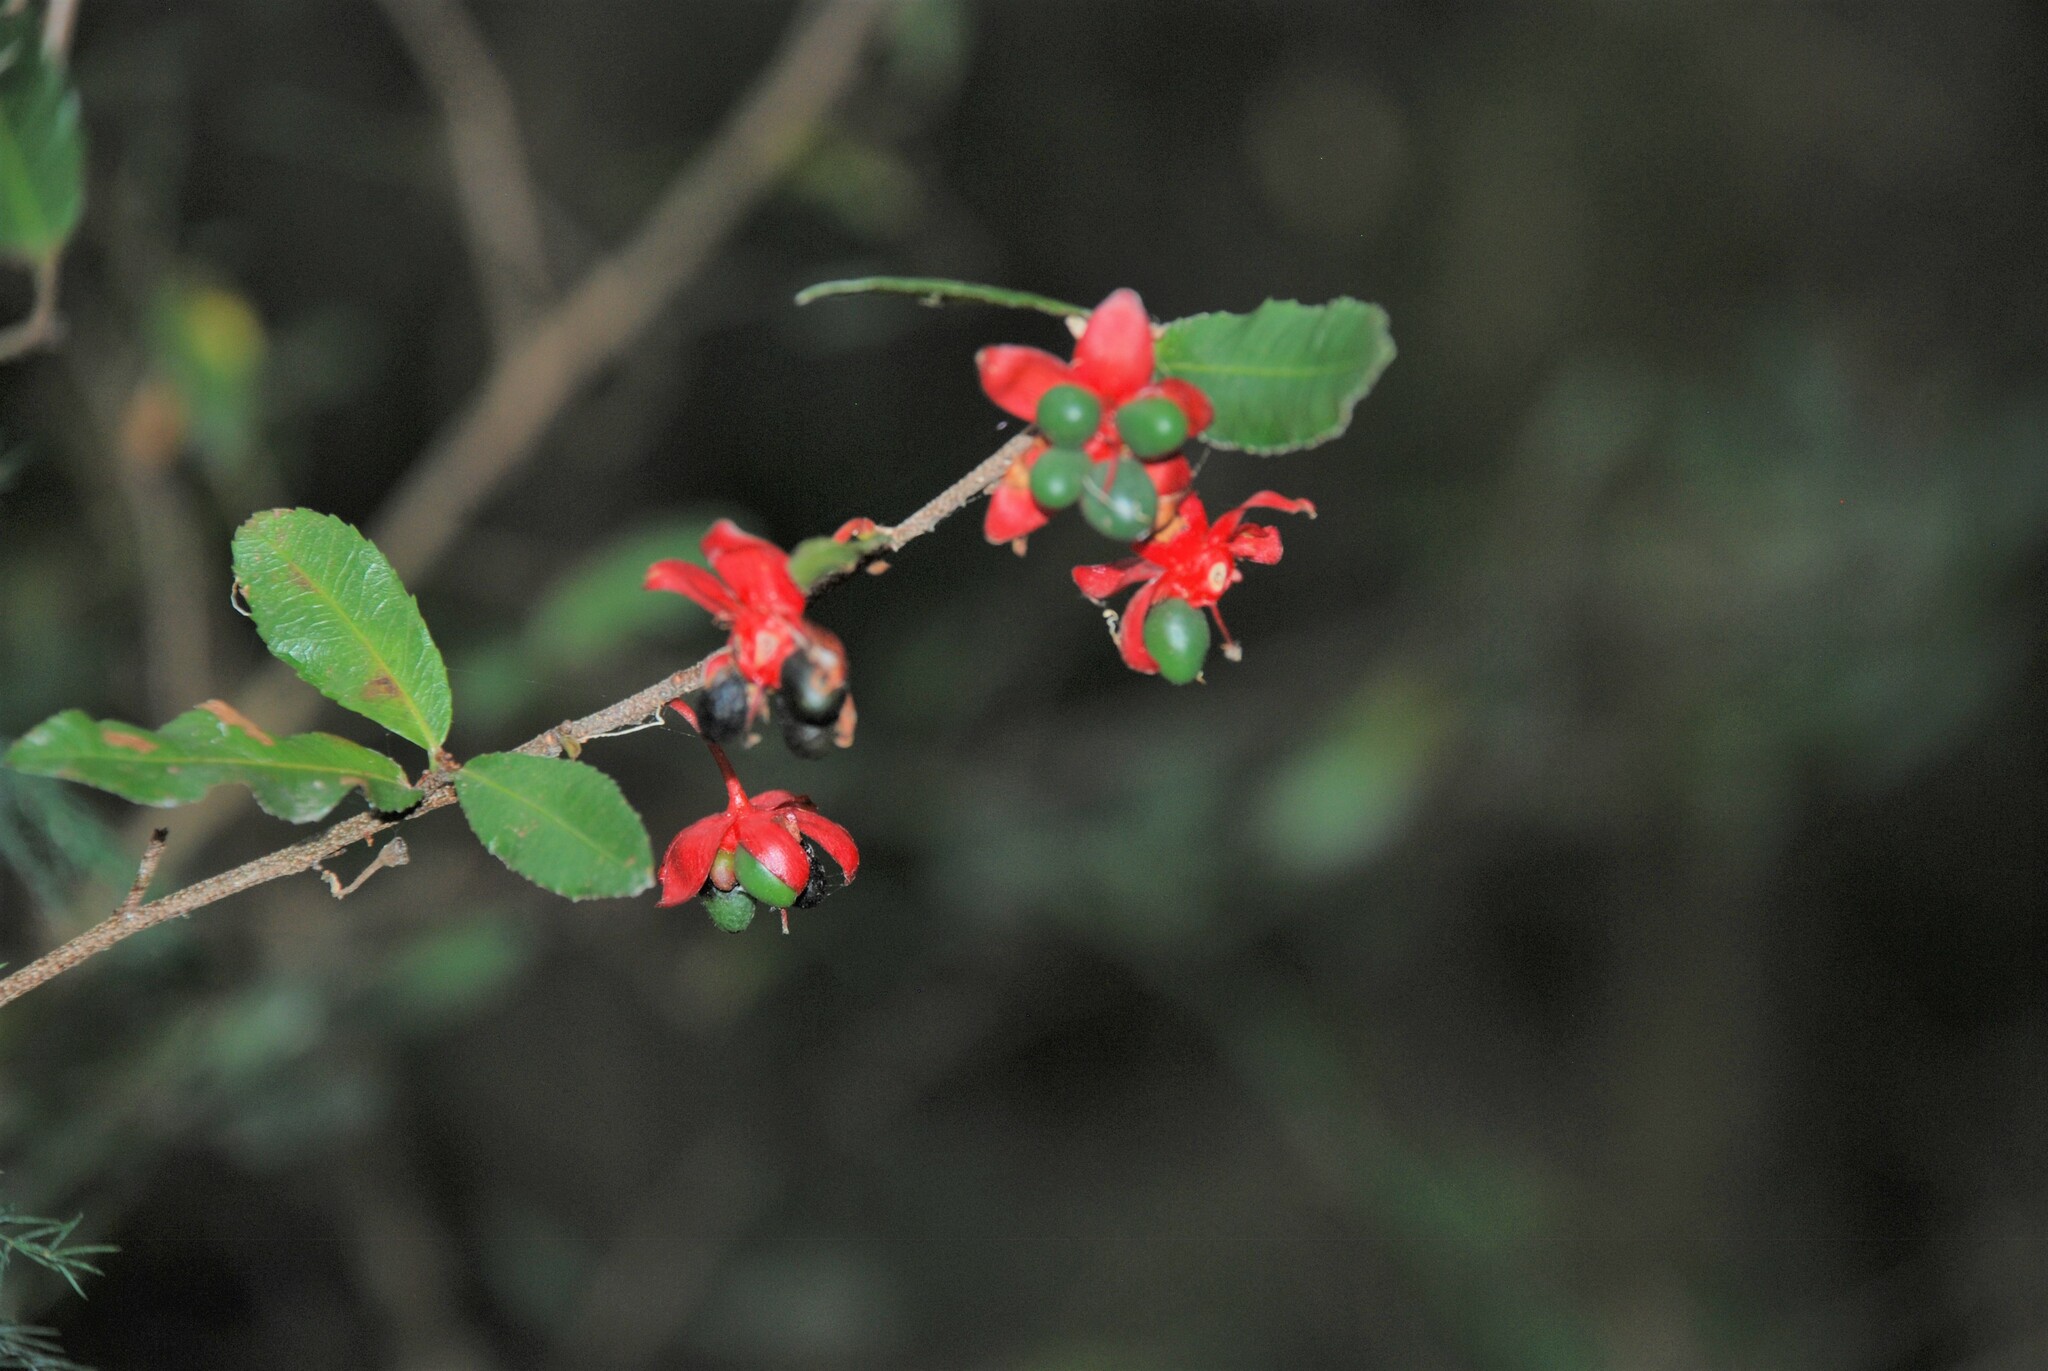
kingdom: Plantae
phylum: Tracheophyta
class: Magnoliopsida
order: Malpighiales
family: Ochnaceae
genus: Ochna
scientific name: Ochna serrulata
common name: Mickey mouse plant
